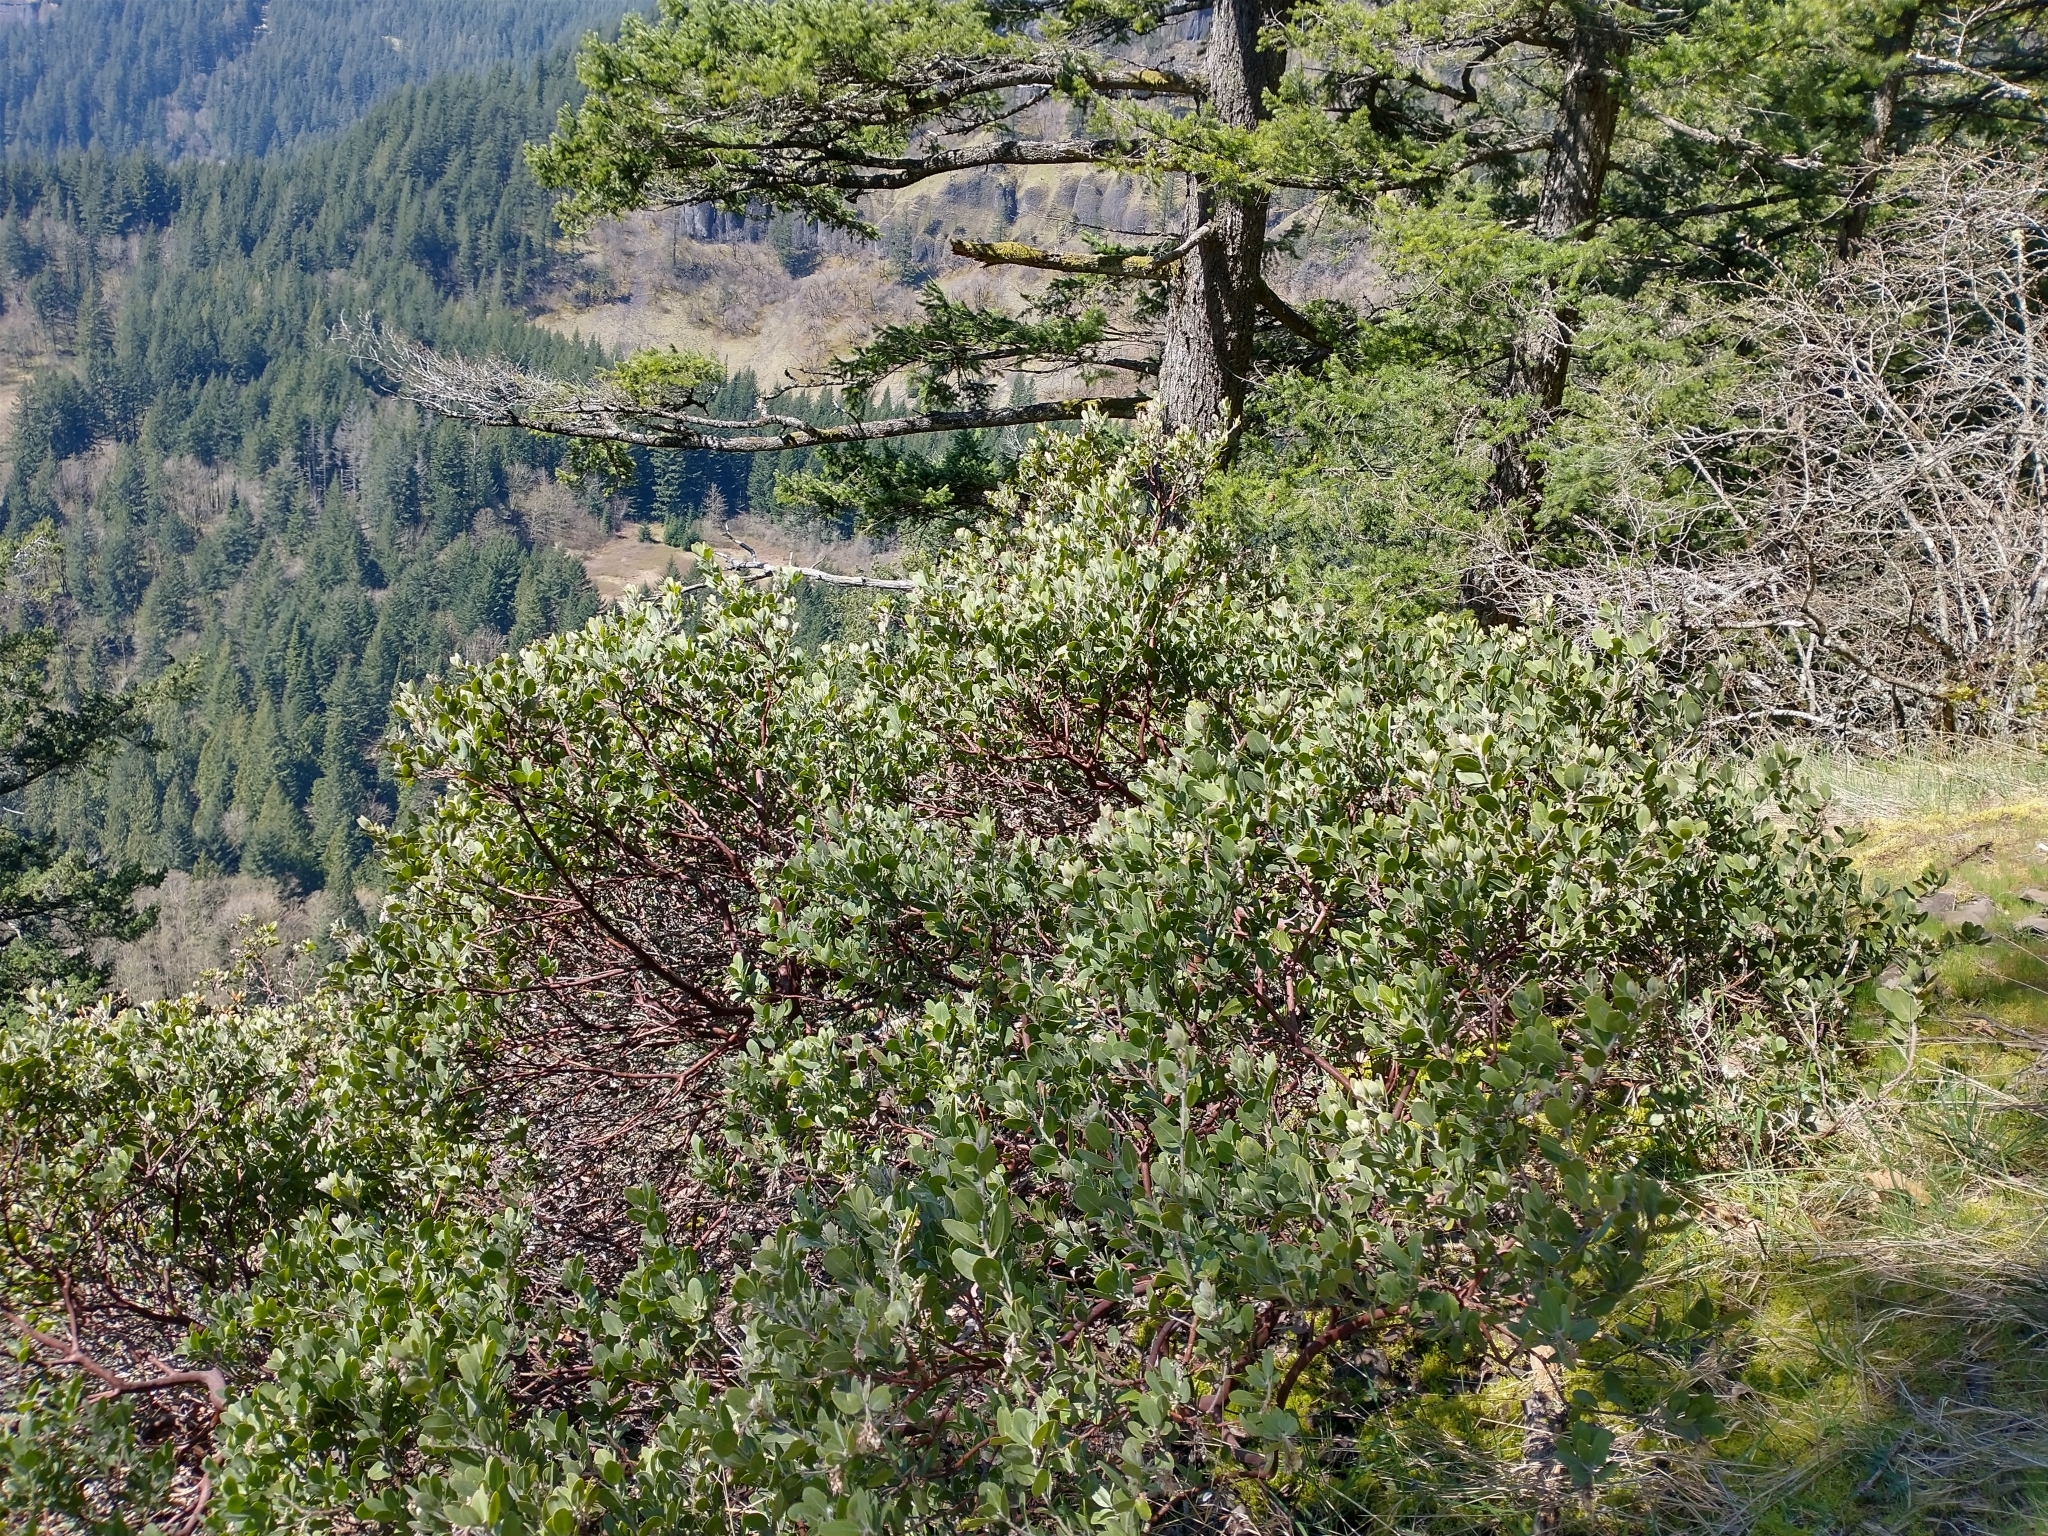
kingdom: Plantae
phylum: Tracheophyta
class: Magnoliopsida
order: Ericales
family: Ericaceae
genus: Arctostaphylos
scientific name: Arctostaphylos columbiana
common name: Bristly bearberry
